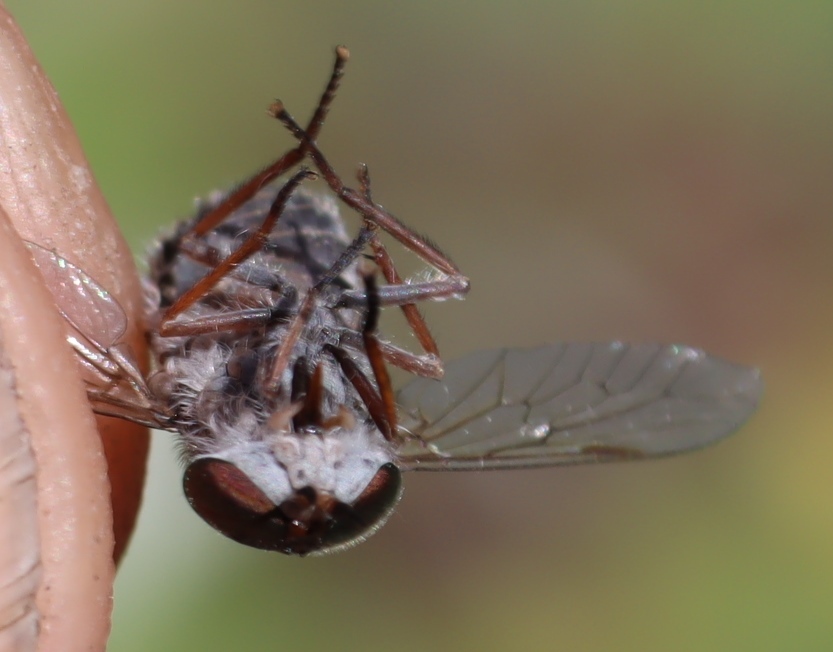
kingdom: Animalia
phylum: Arthropoda
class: Insecta
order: Diptera
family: Tabanidae
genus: Tabanus
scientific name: Tabanus taeniatus
